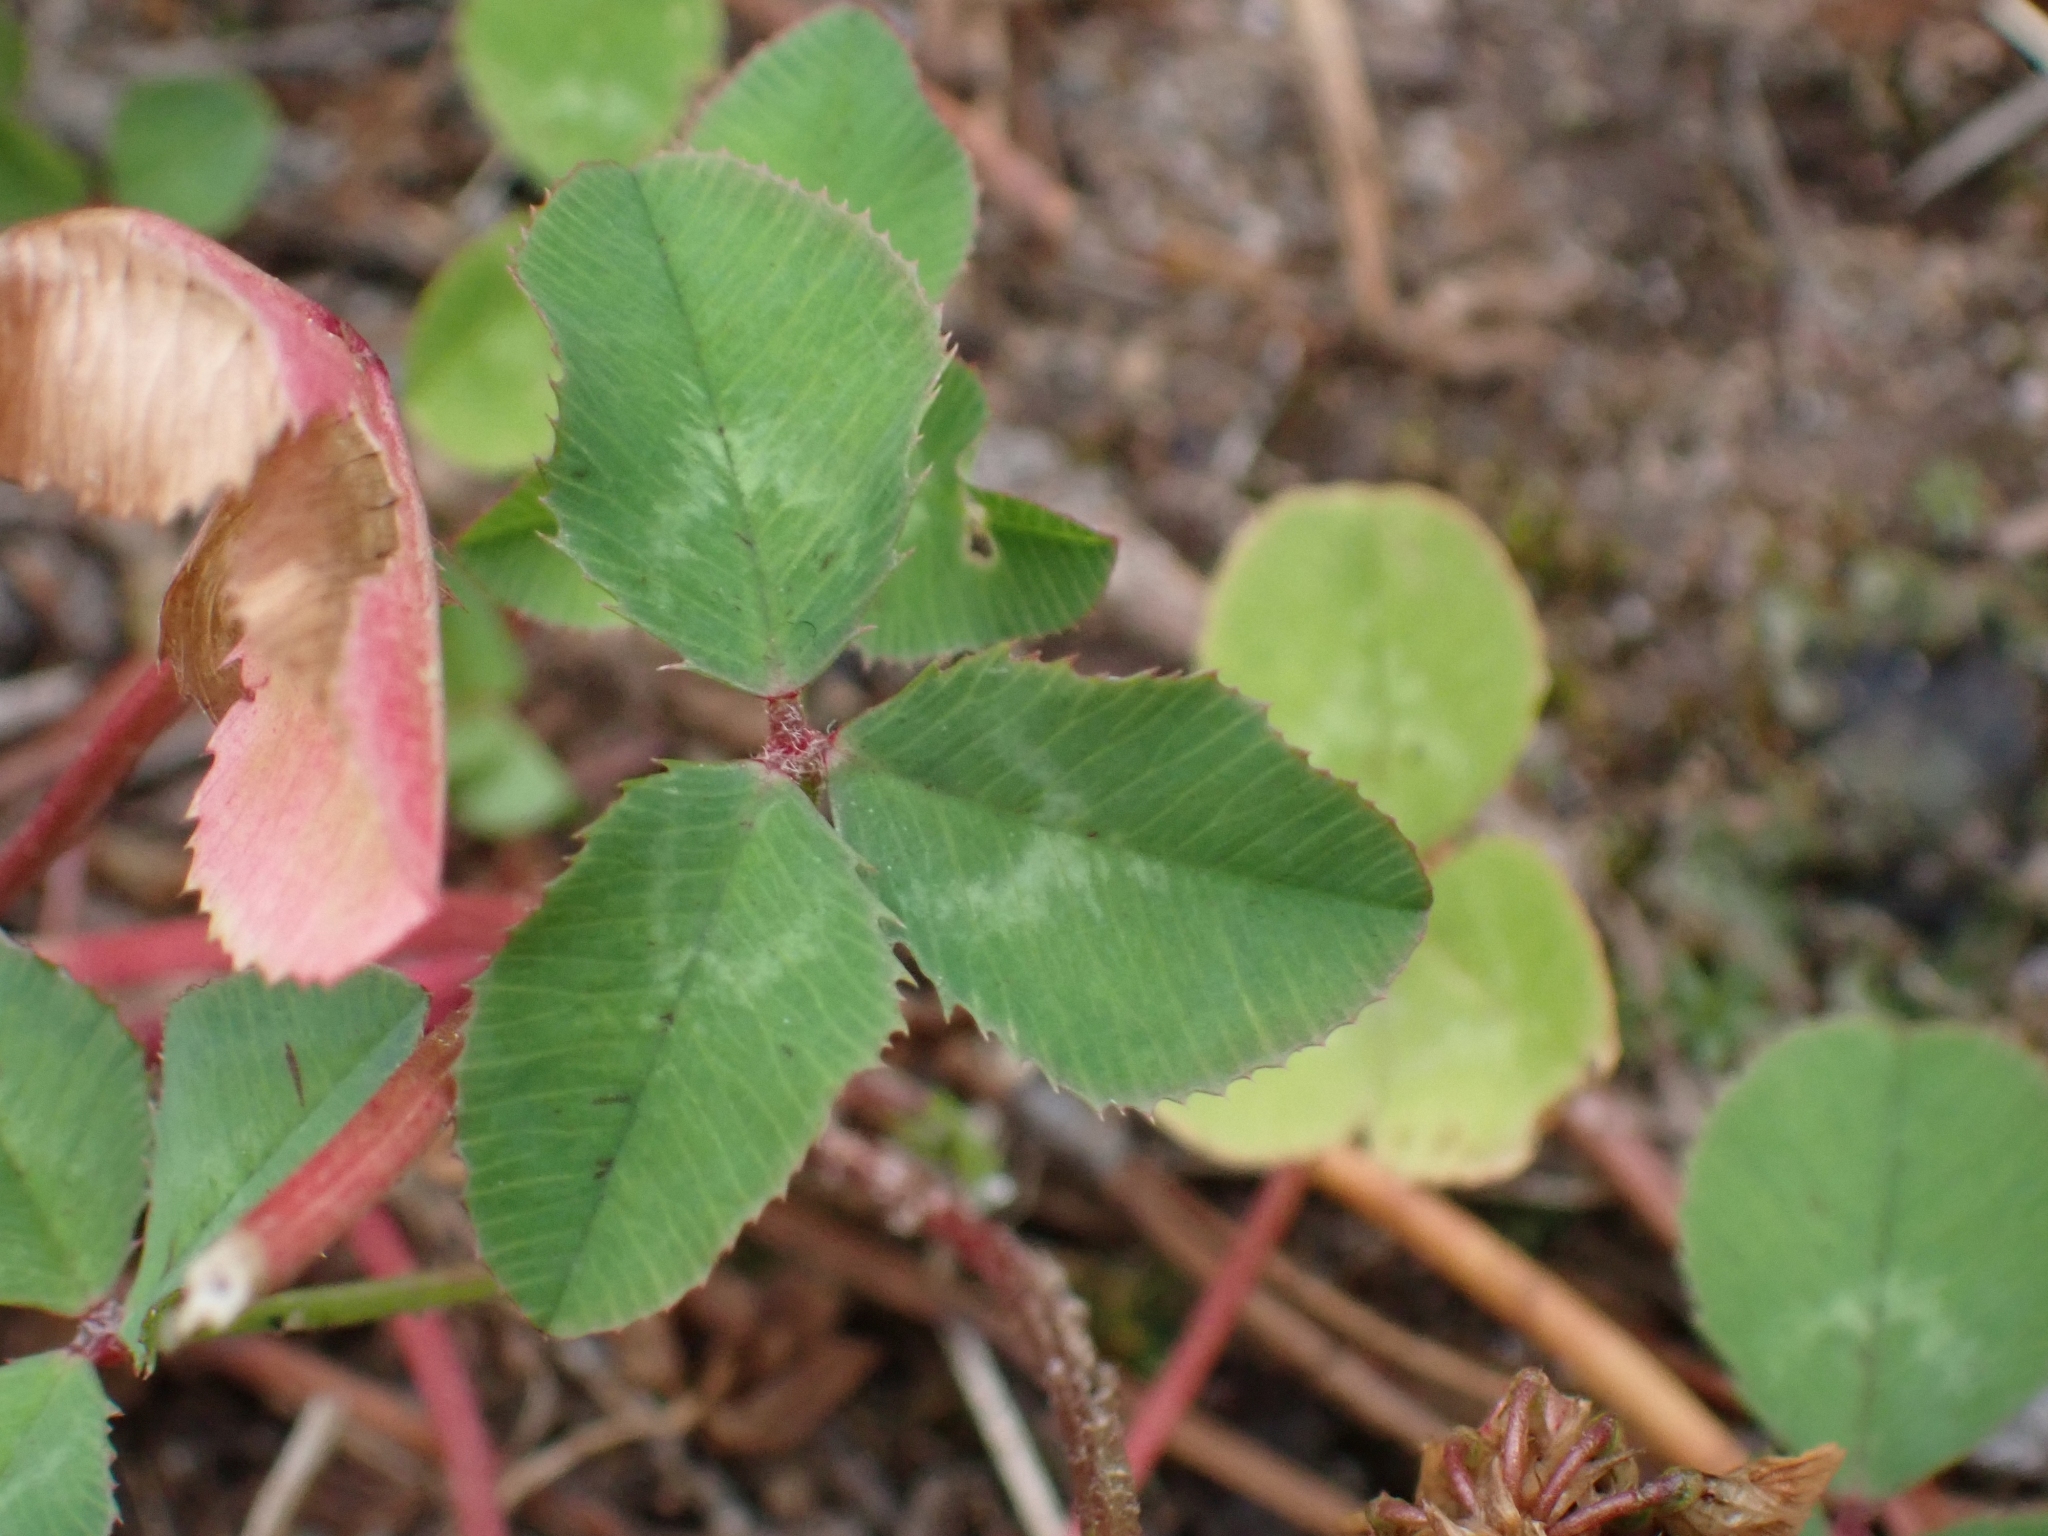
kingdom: Plantae
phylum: Tracheophyta
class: Magnoliopsida
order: Fabales
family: Fabaceae
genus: Trifolium
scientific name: Trifolium repens
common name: White clover
